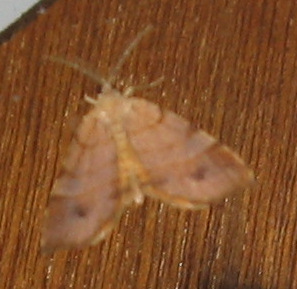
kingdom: Animalia
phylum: Arthropoda
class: Insecta
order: Lepidoptera
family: Geometridae
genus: Mellilla
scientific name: Mellilla xanthometata
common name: Orange wing moth
